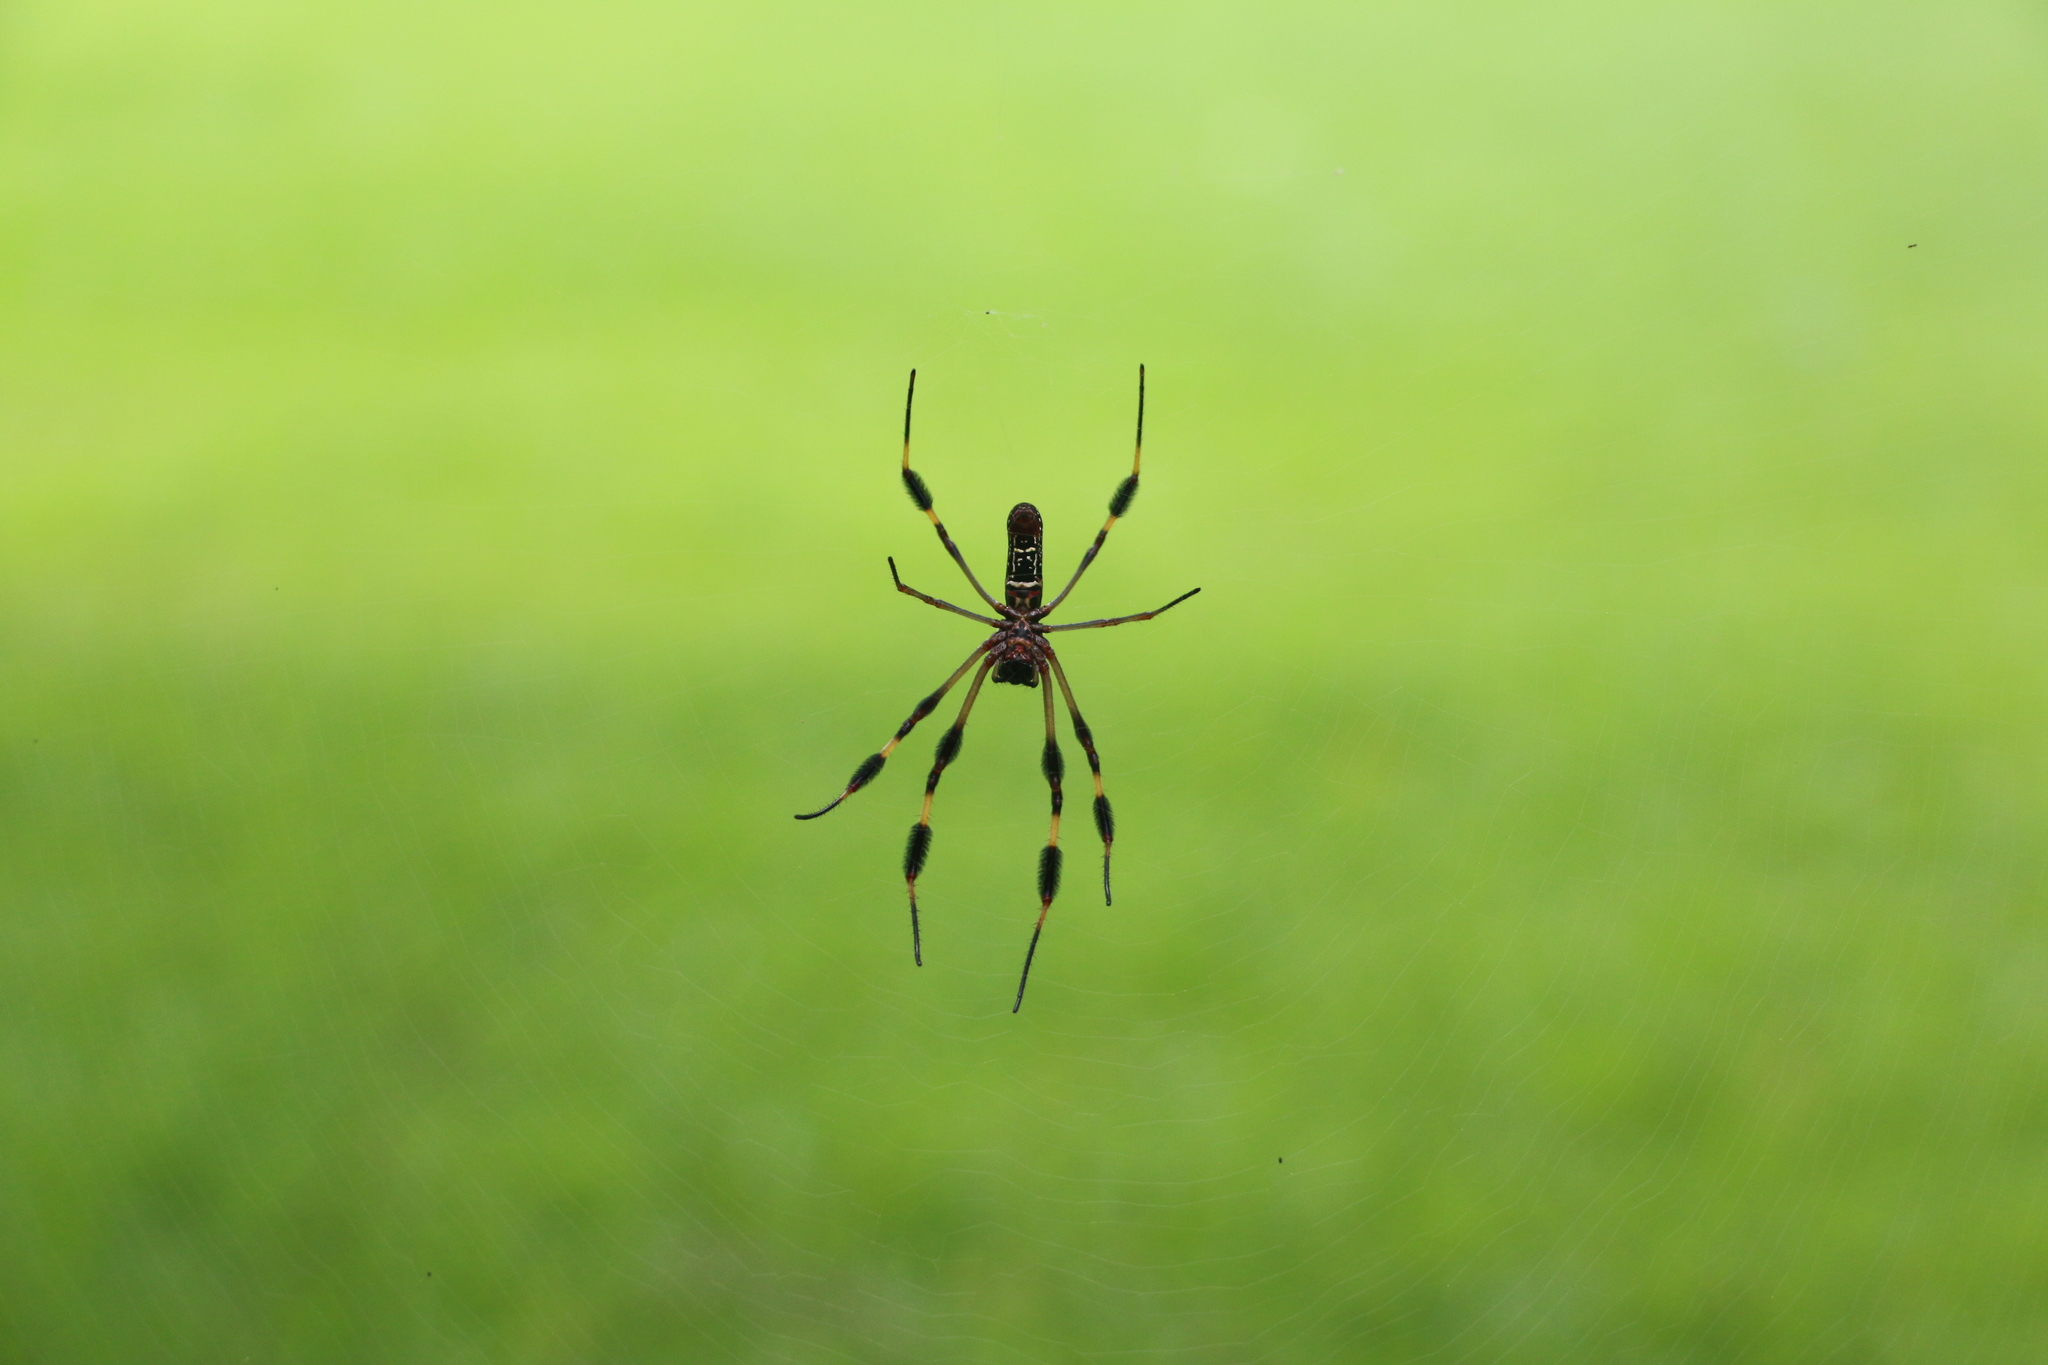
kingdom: Animalia
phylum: Arthropoda
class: Arachnida
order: Araneae
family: Araneidae
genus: Trichonephila
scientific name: Trichonephila clavipes
